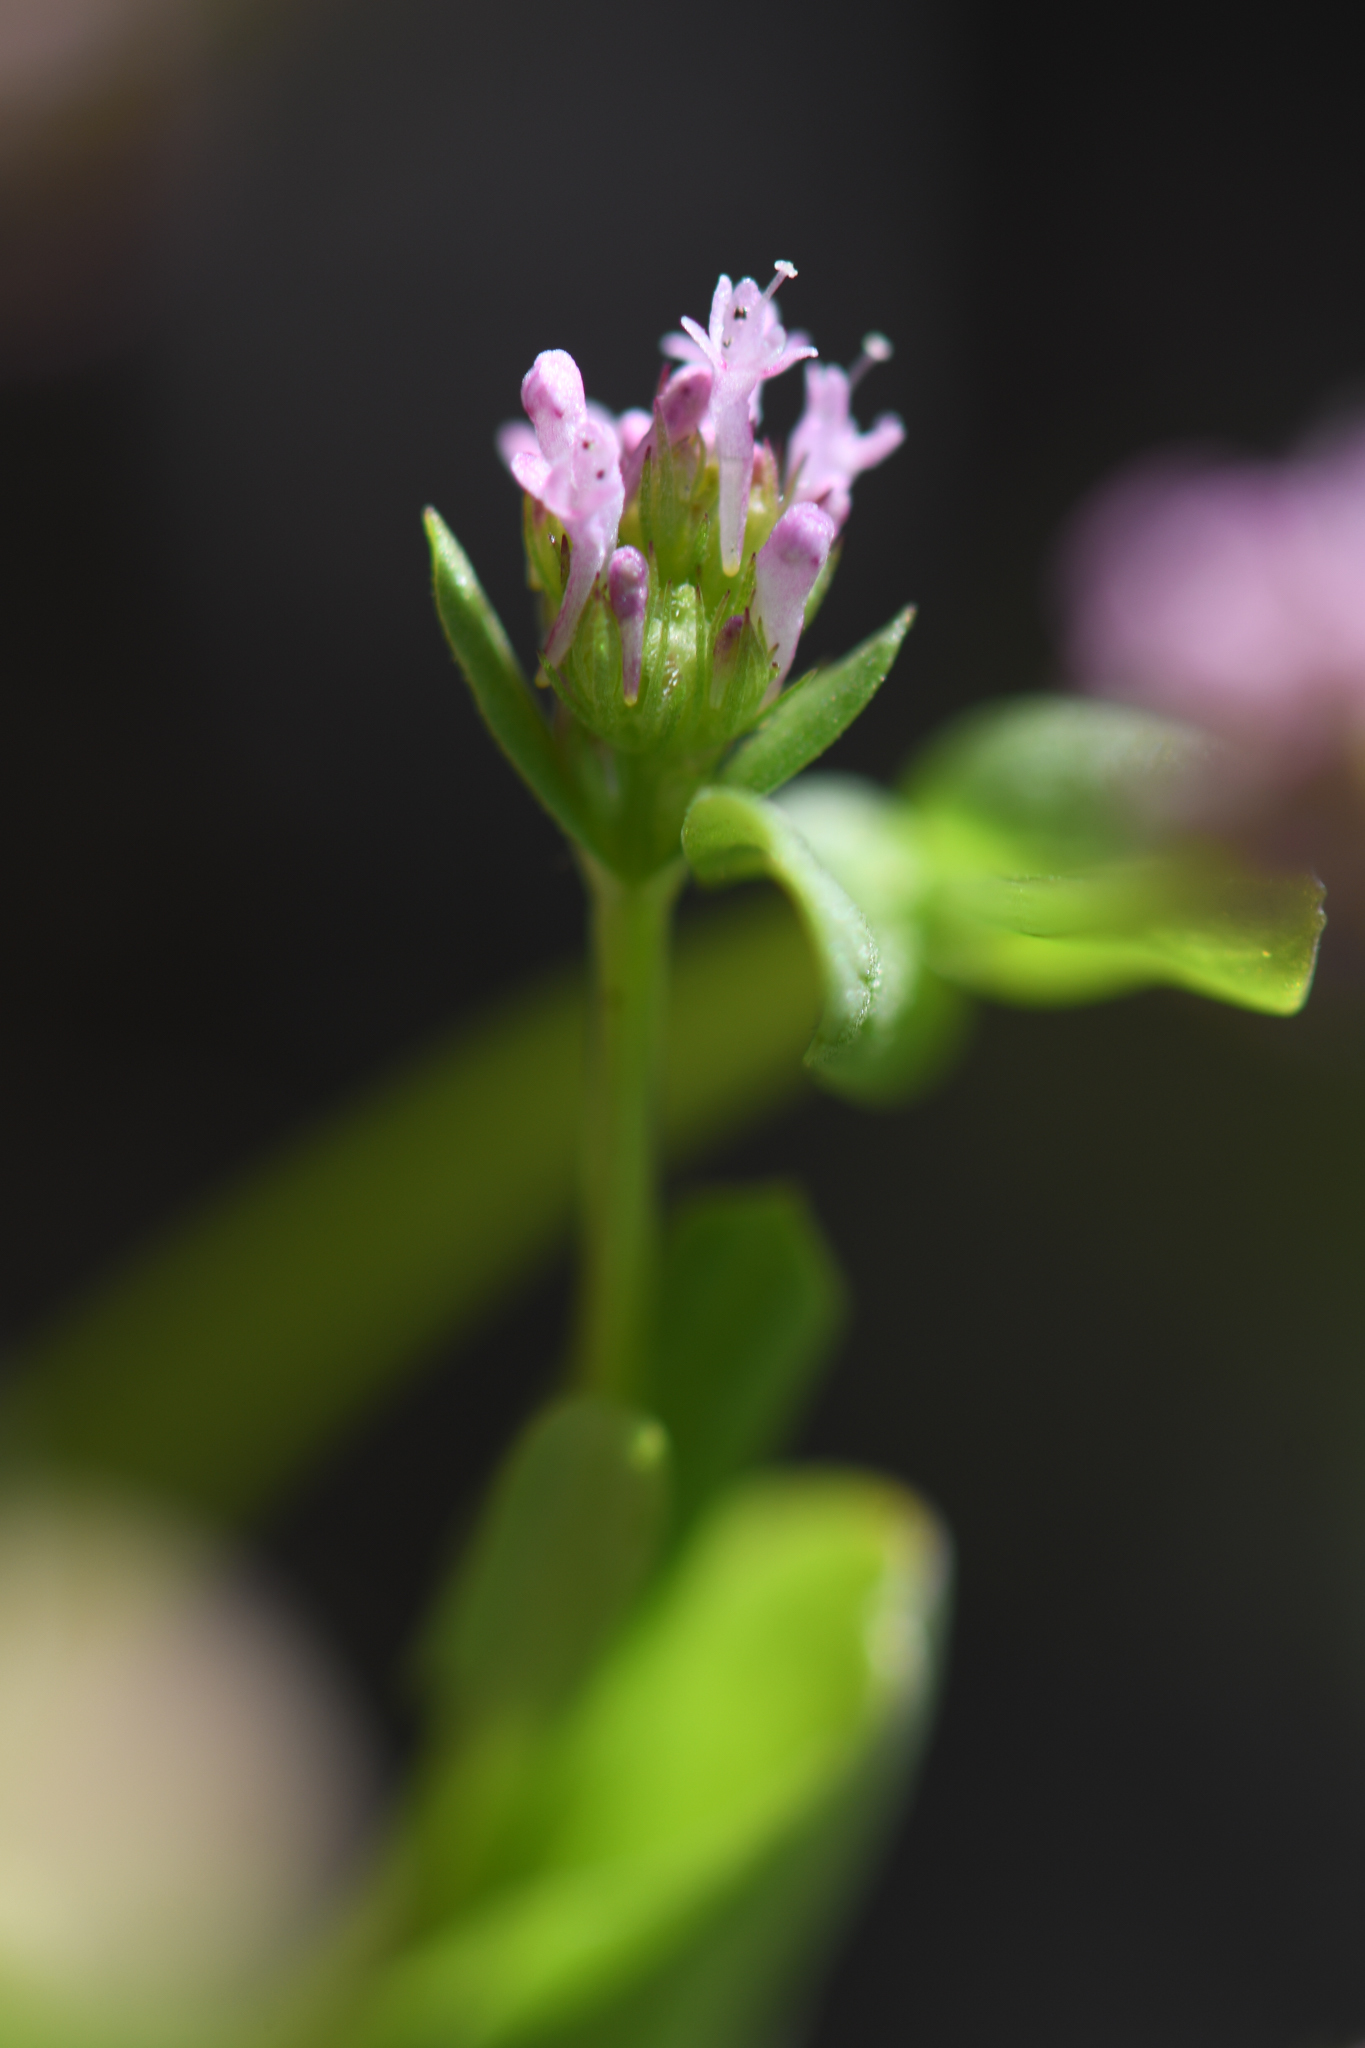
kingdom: Plantae
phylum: Tracheophyta
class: Magnoliopsida
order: Dipsacales
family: Caprifoliaceae
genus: Plectritis
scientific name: Plectritis ciliosa
